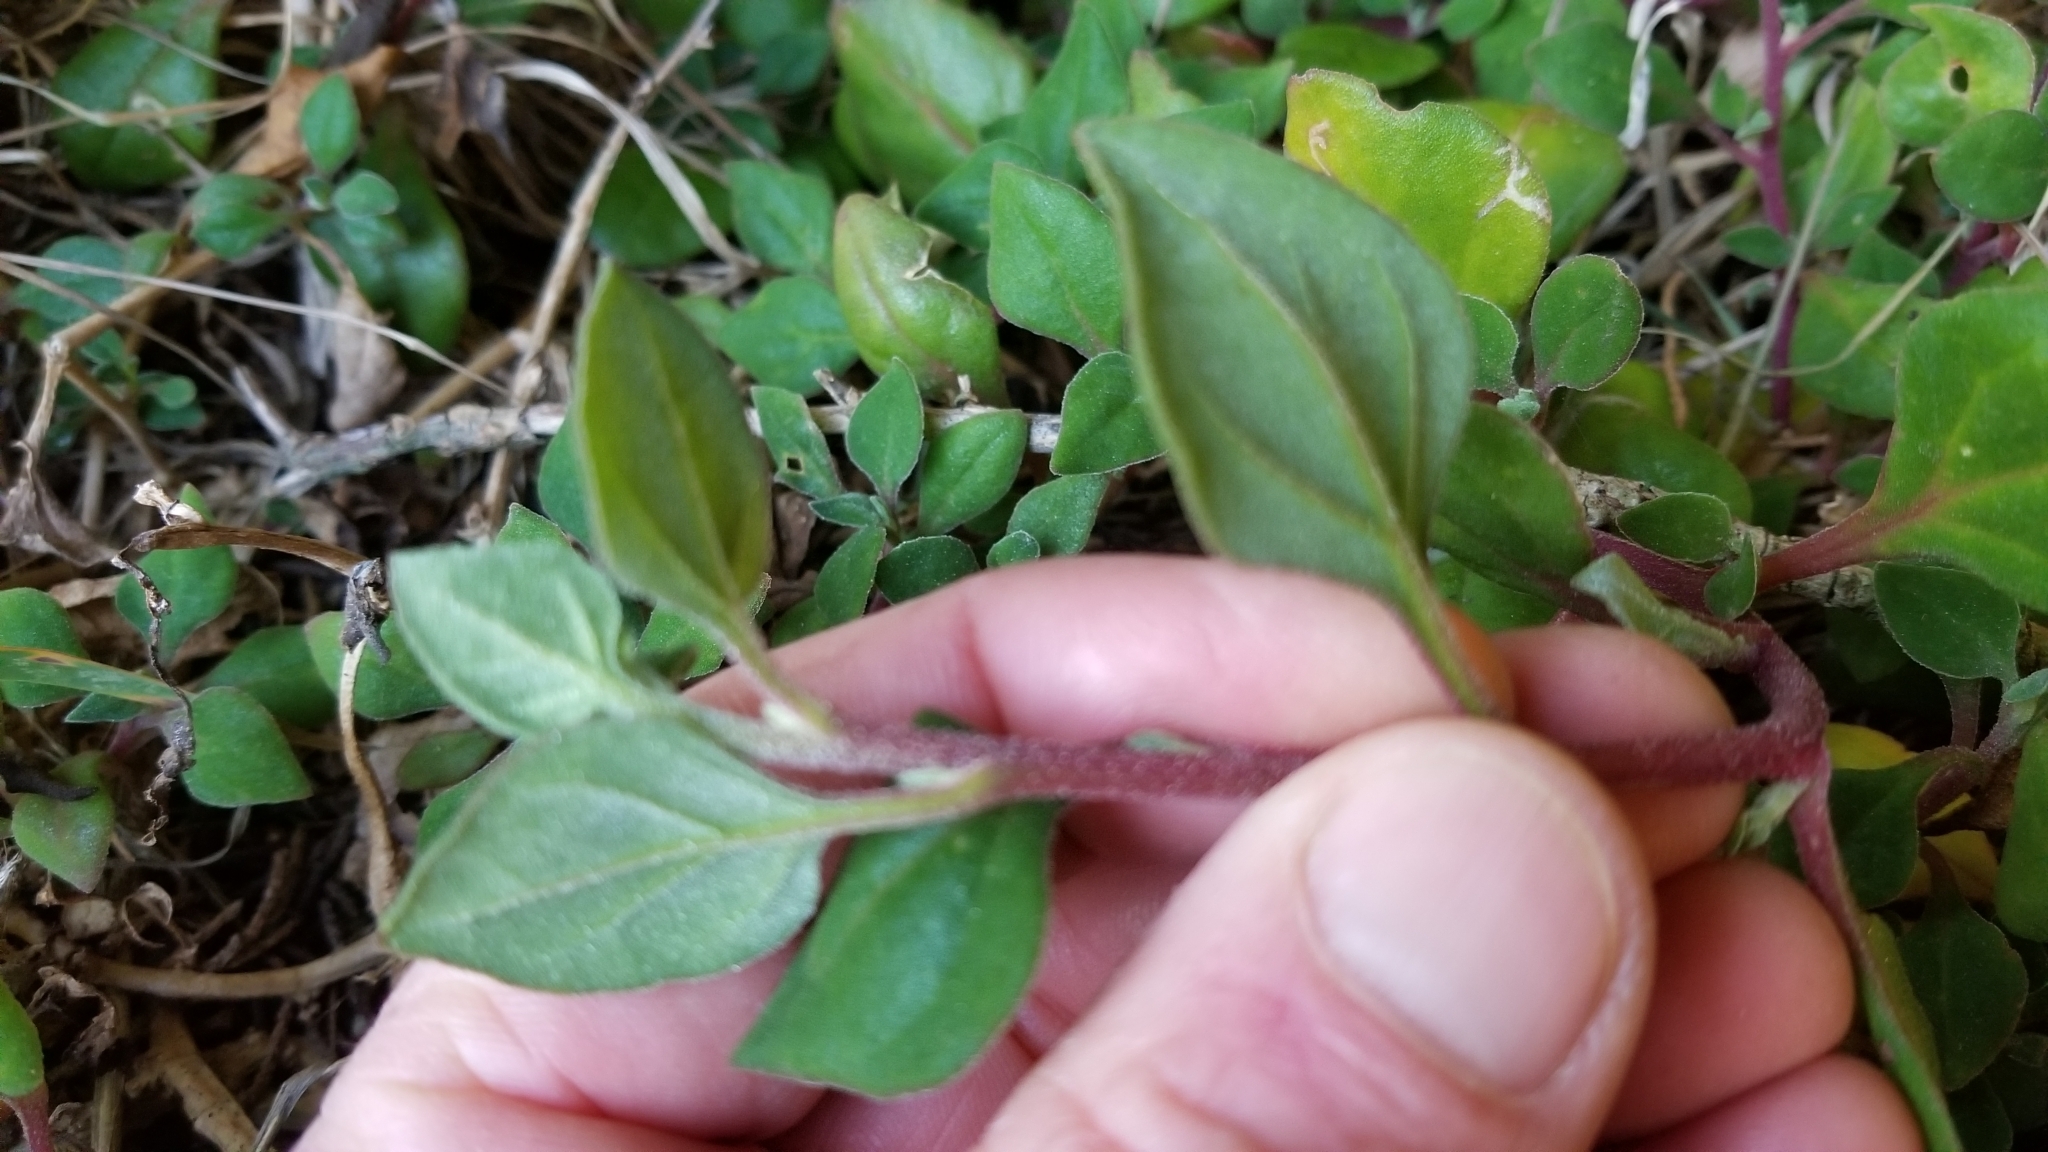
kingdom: Plantae
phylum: Tracheophyta
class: Magnoliopsida
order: Caryophyllales
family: Aizoaceae
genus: Tetragonia
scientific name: Tetragonia implexicoma
